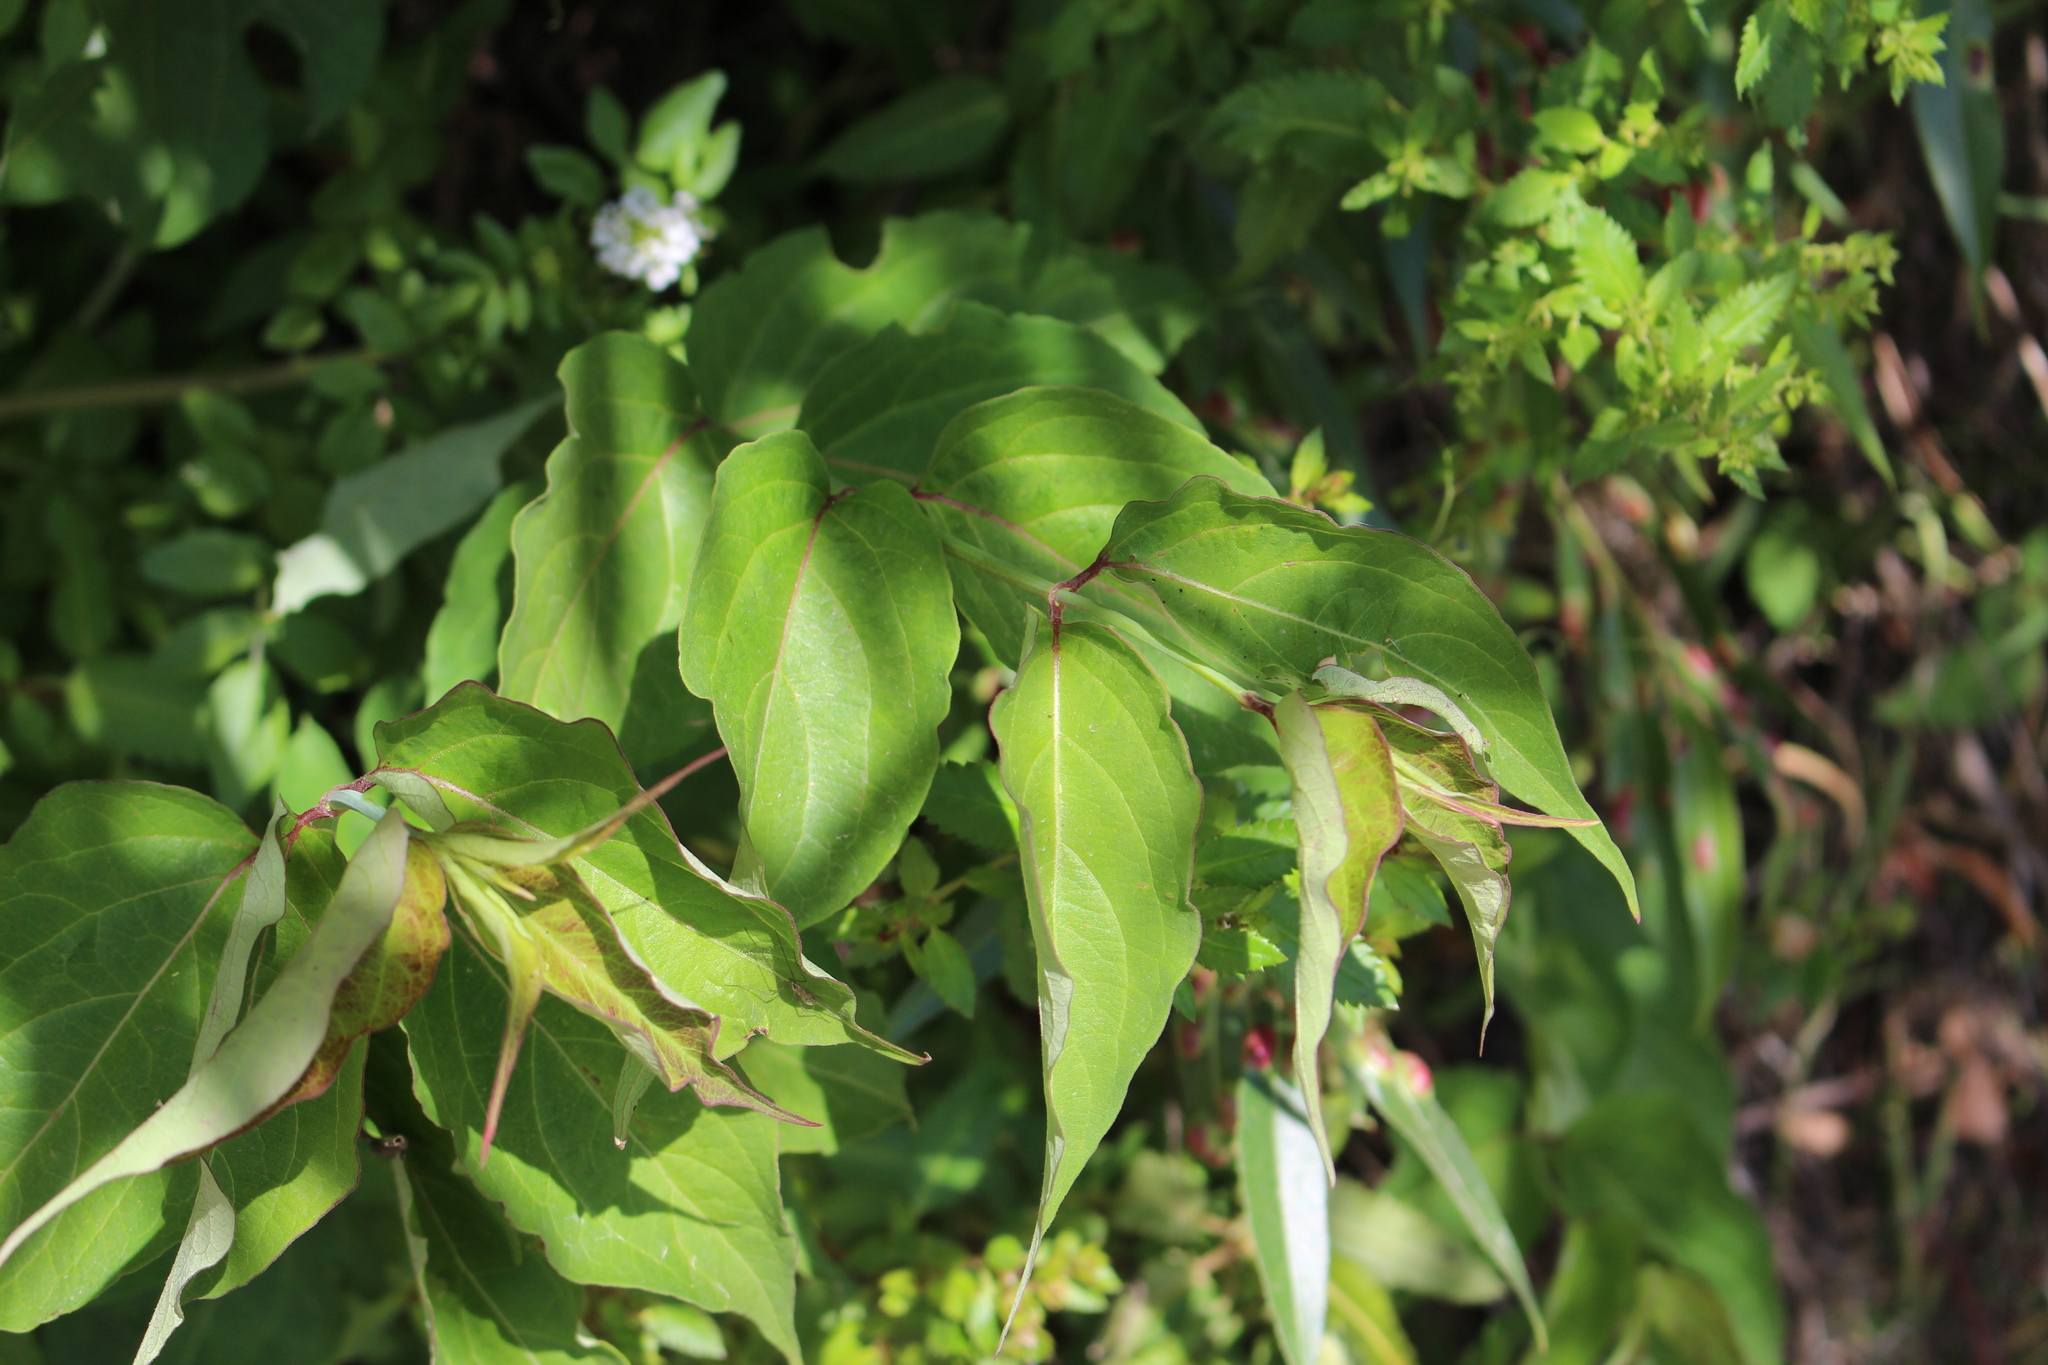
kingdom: Plantae
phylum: Tracheophyta
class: Magnoliopsida
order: Dipsacales
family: Caprifoliaceae
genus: Leycesteria
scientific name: Leycesteria formosa
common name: Himalayan honeysuckle
